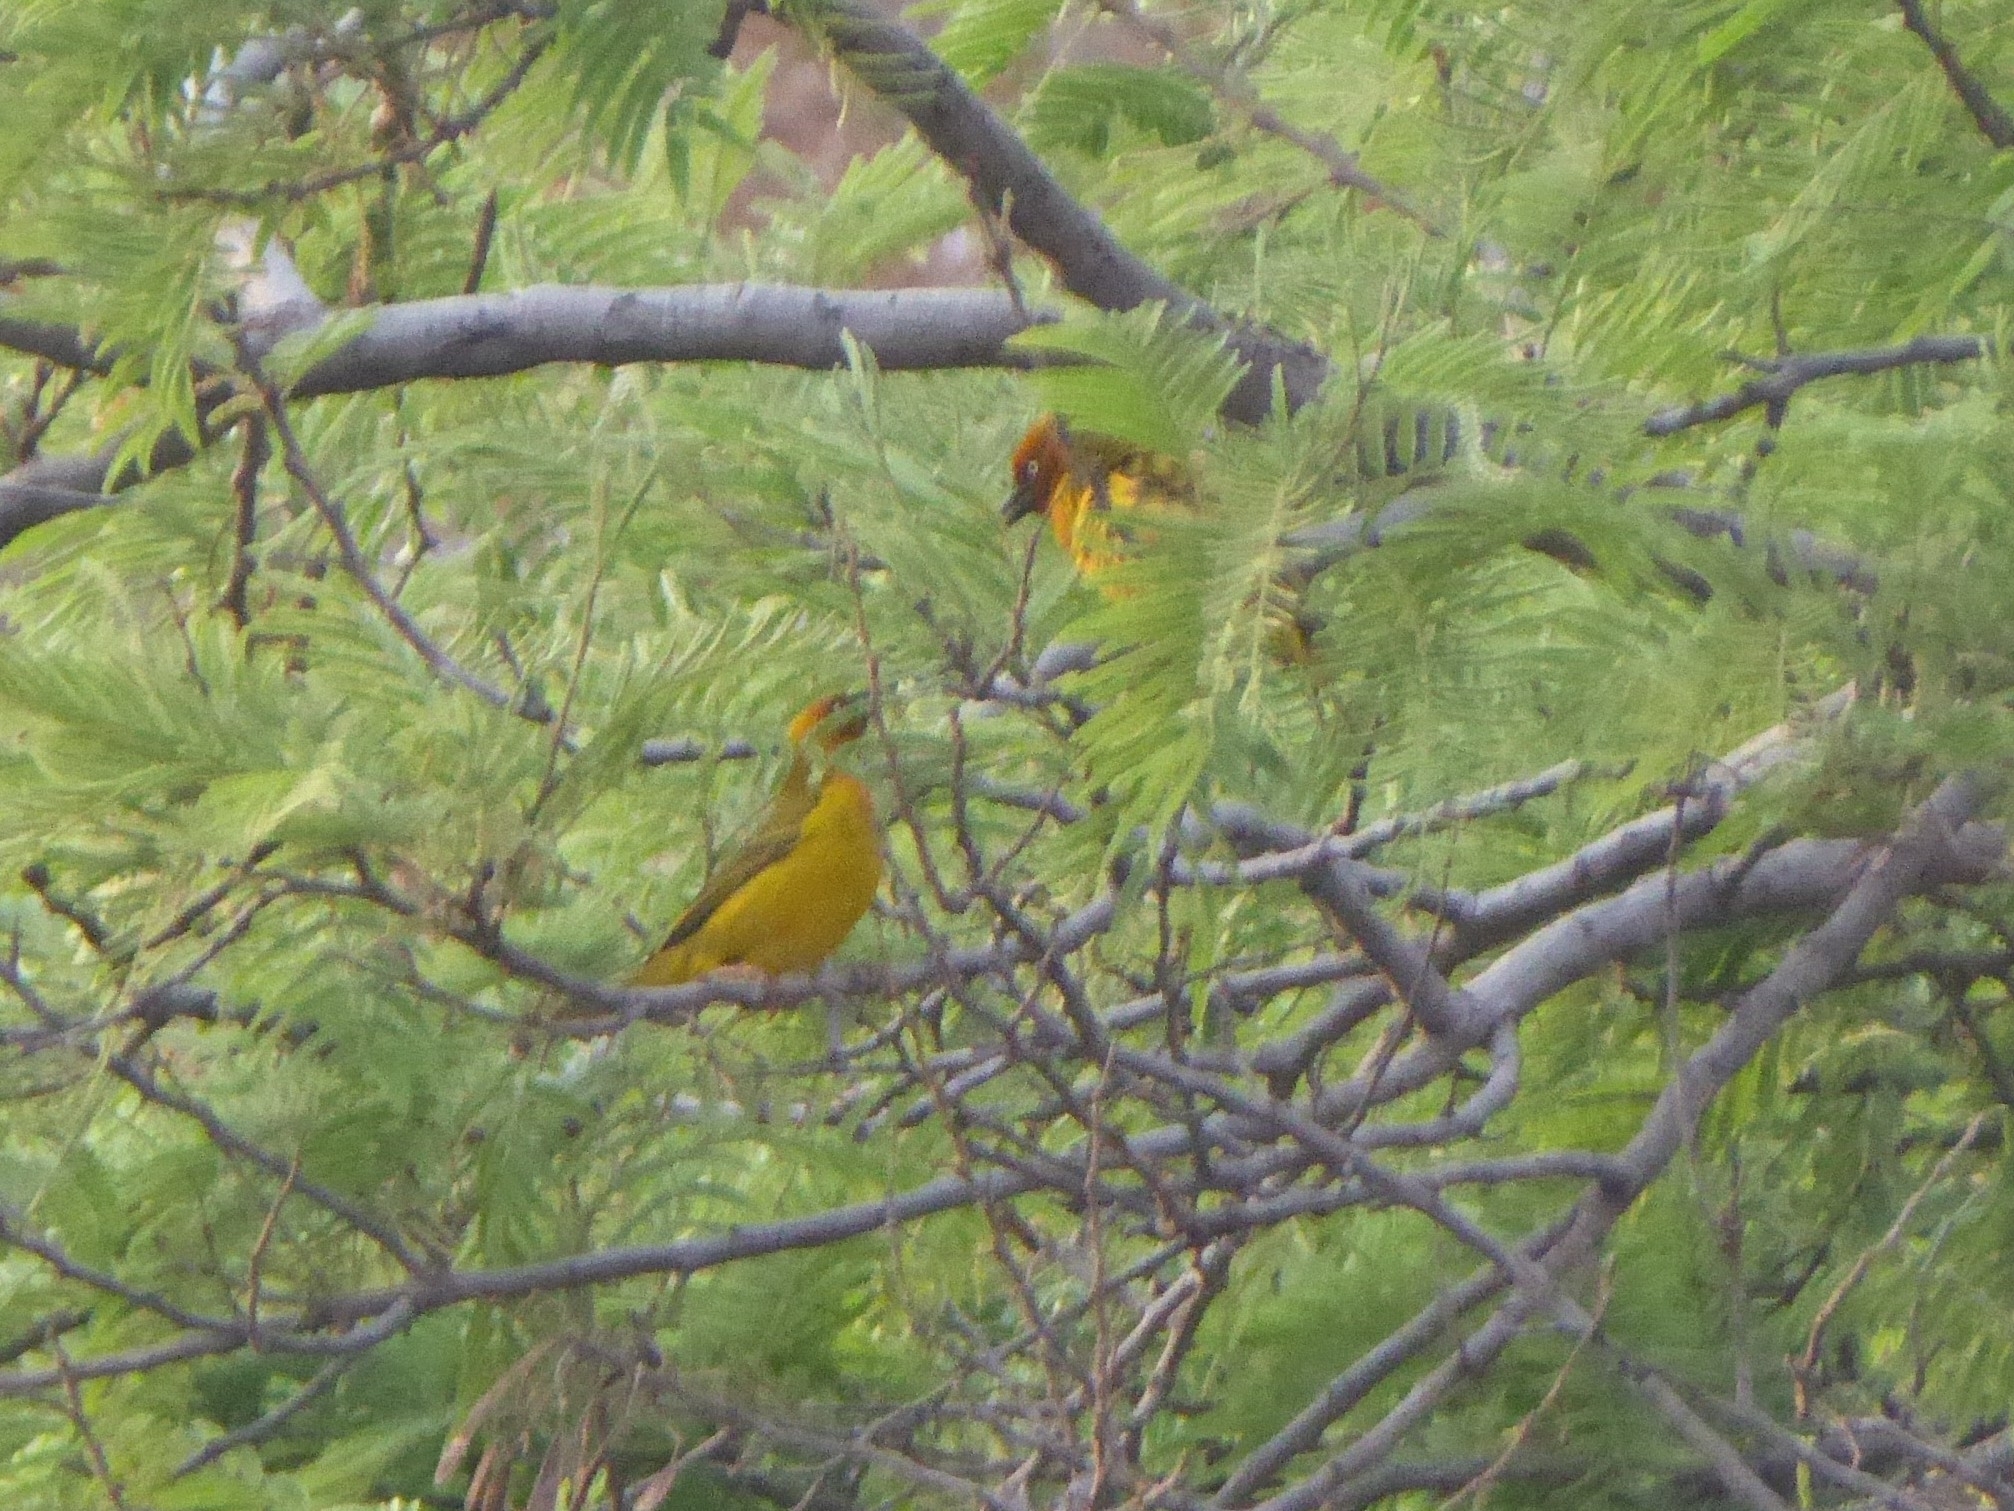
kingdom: Animalia
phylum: Chordata
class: Aves
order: Passeriformes
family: Ploceidae
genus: Ploceus
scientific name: Ploceus capensis
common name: Cape weaver
